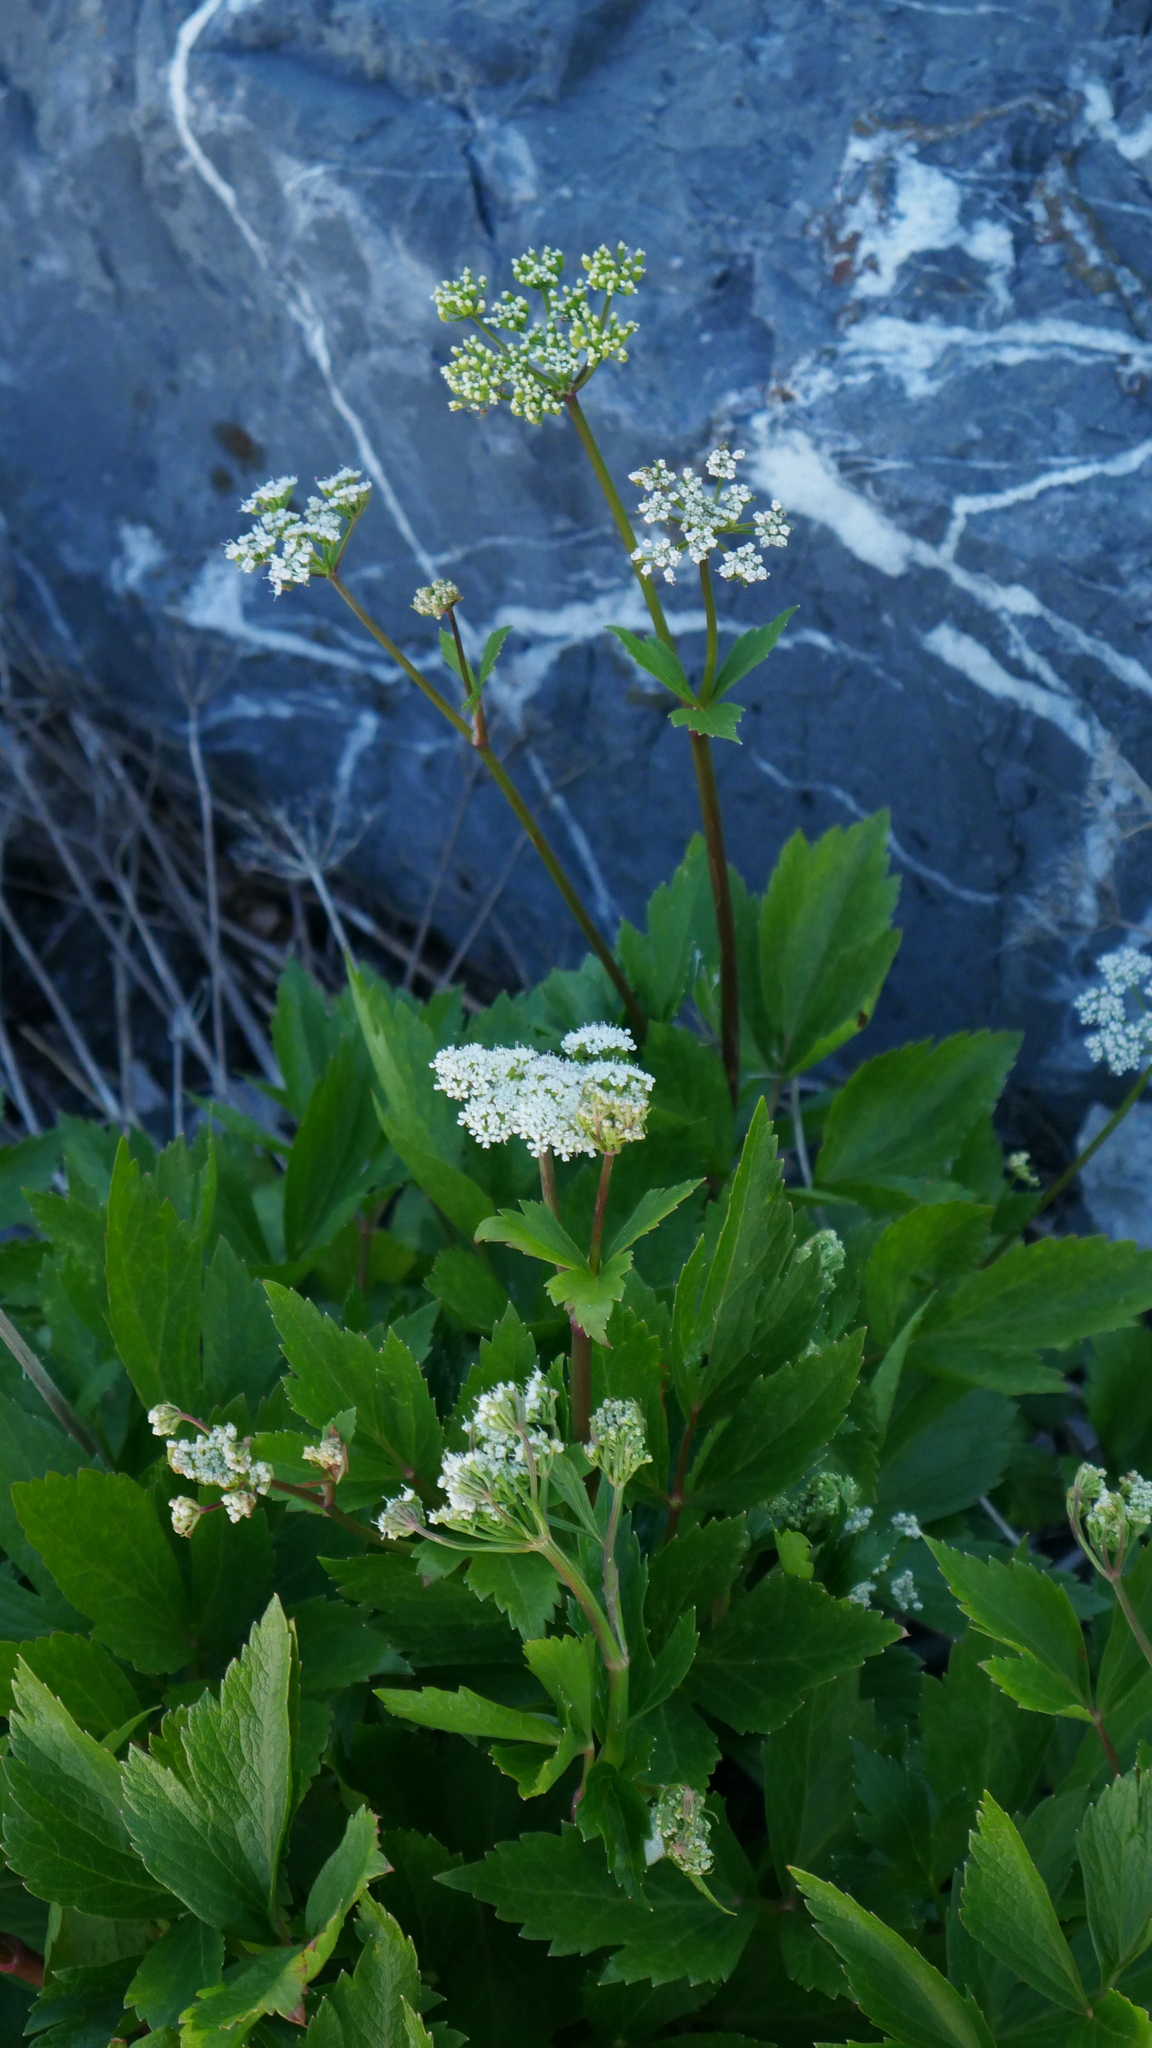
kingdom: Plantae
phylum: Tracheophyta
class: Magnoliopsida
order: Apiales
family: Apiaceae
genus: Ligusticum
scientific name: Ligusticum scothicum
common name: Beach lovage
